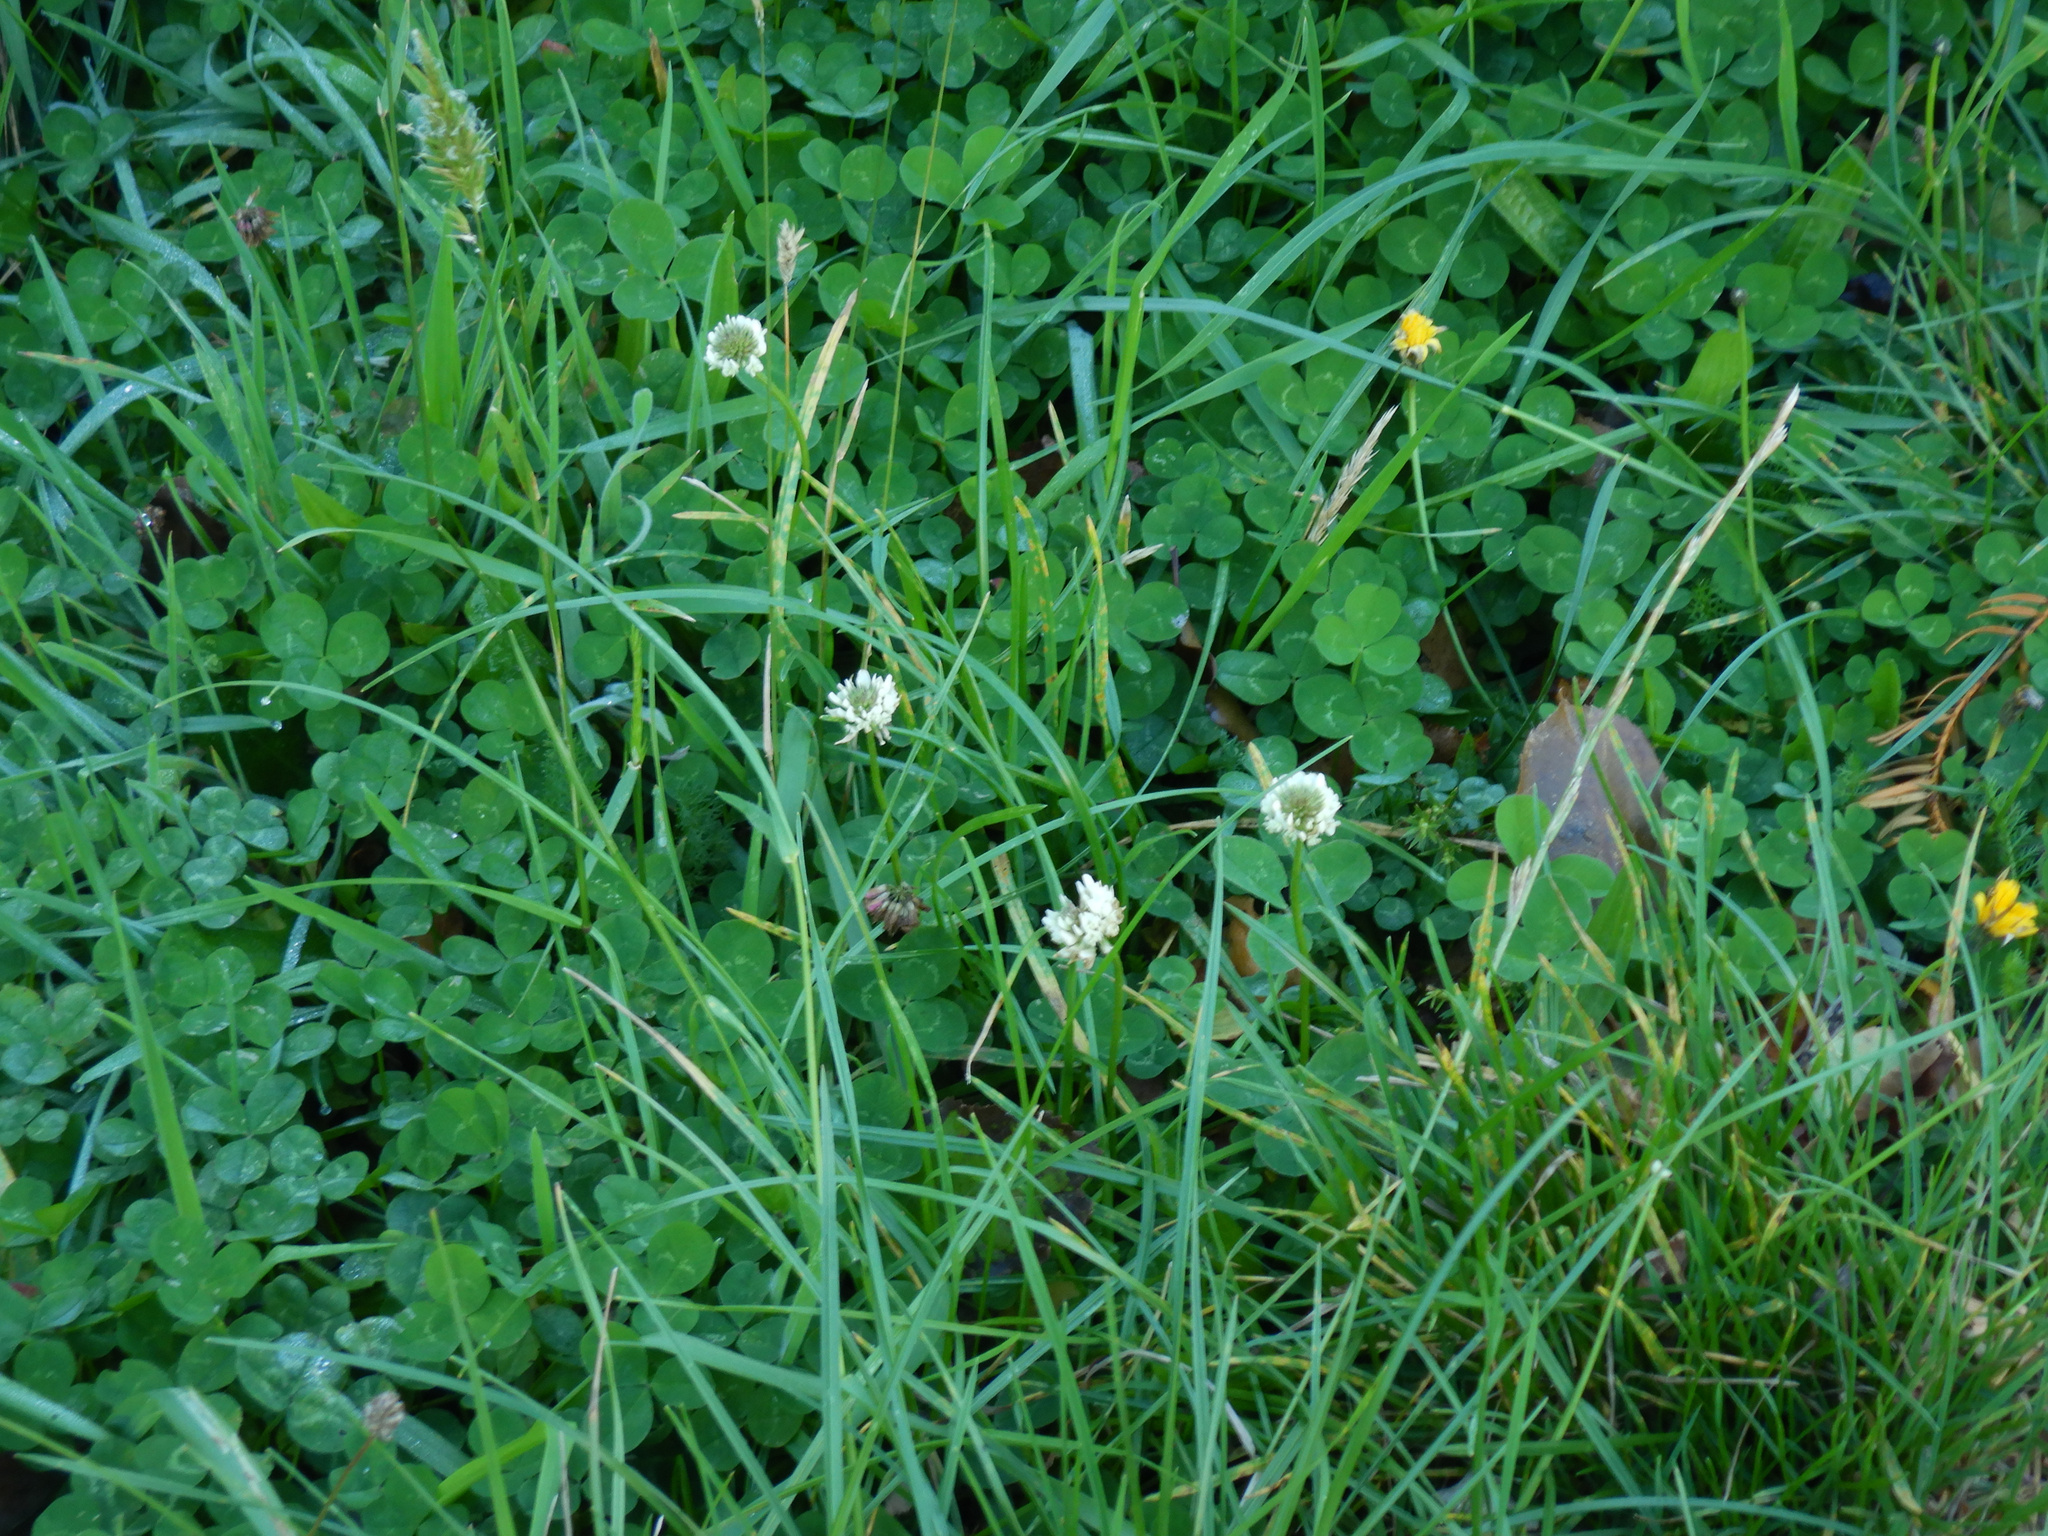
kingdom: Plantae
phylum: Tracheophyta
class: Magnoliopsida
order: Fabales
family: Fabaceae
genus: Trifolium
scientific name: Trifolium repens
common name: White clover
